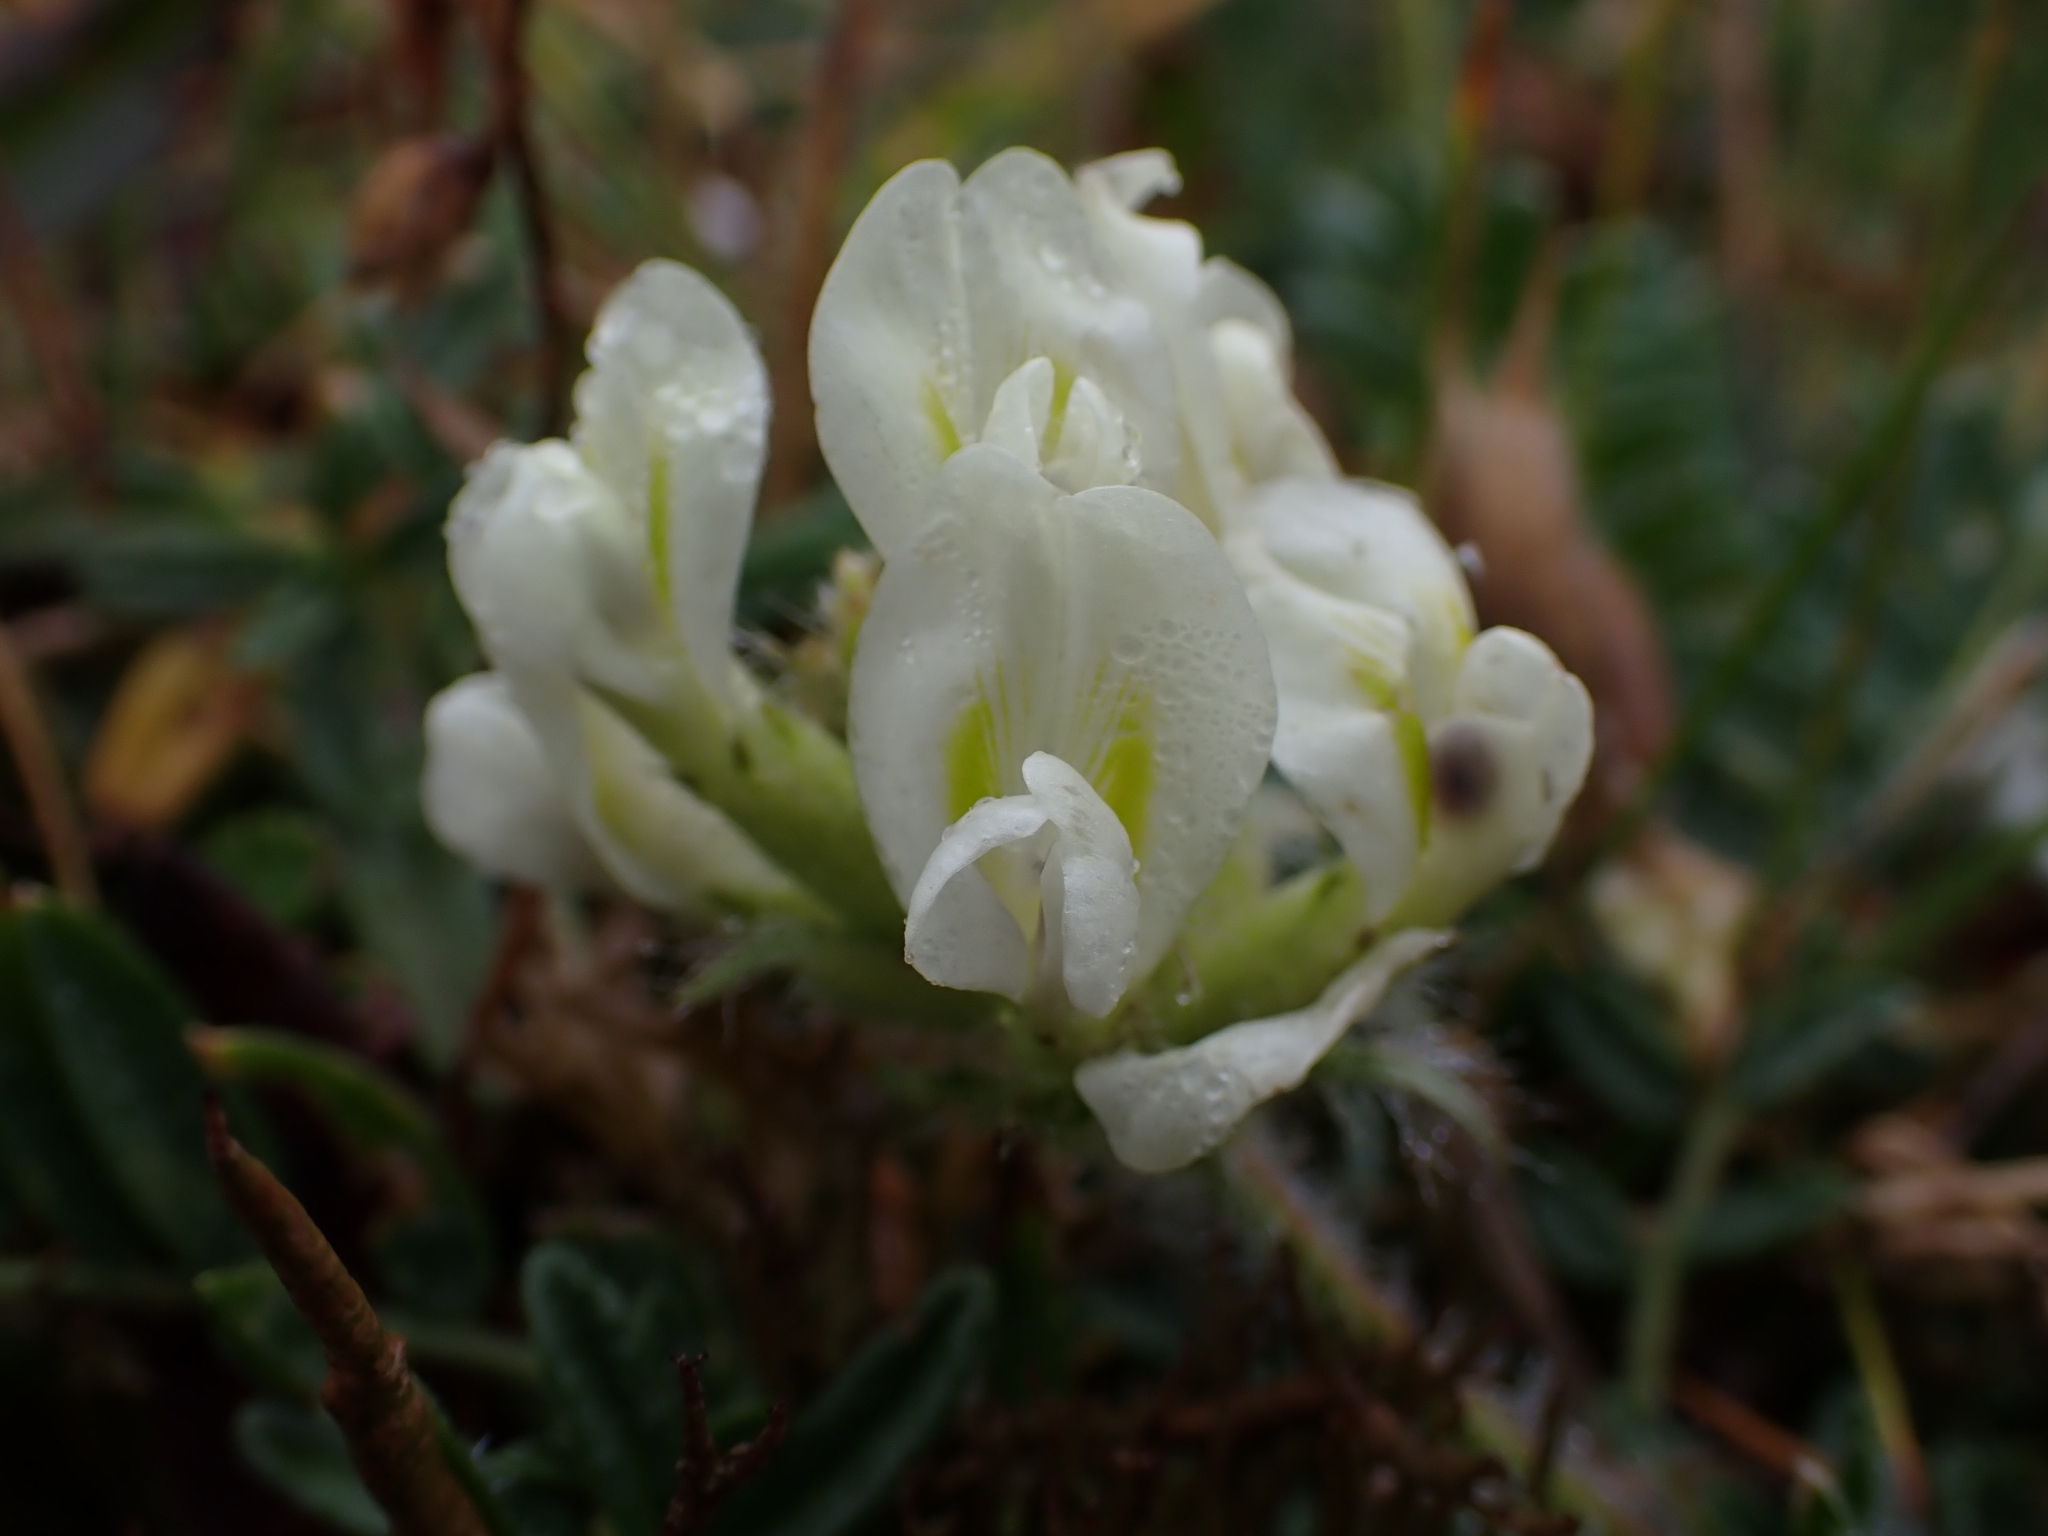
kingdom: Plantae
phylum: Tracheophyta
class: Magnoliopsida
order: Fabales
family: Fabaceae
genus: Oxytropis
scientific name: Oxytropis campestris
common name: Field locoweed
